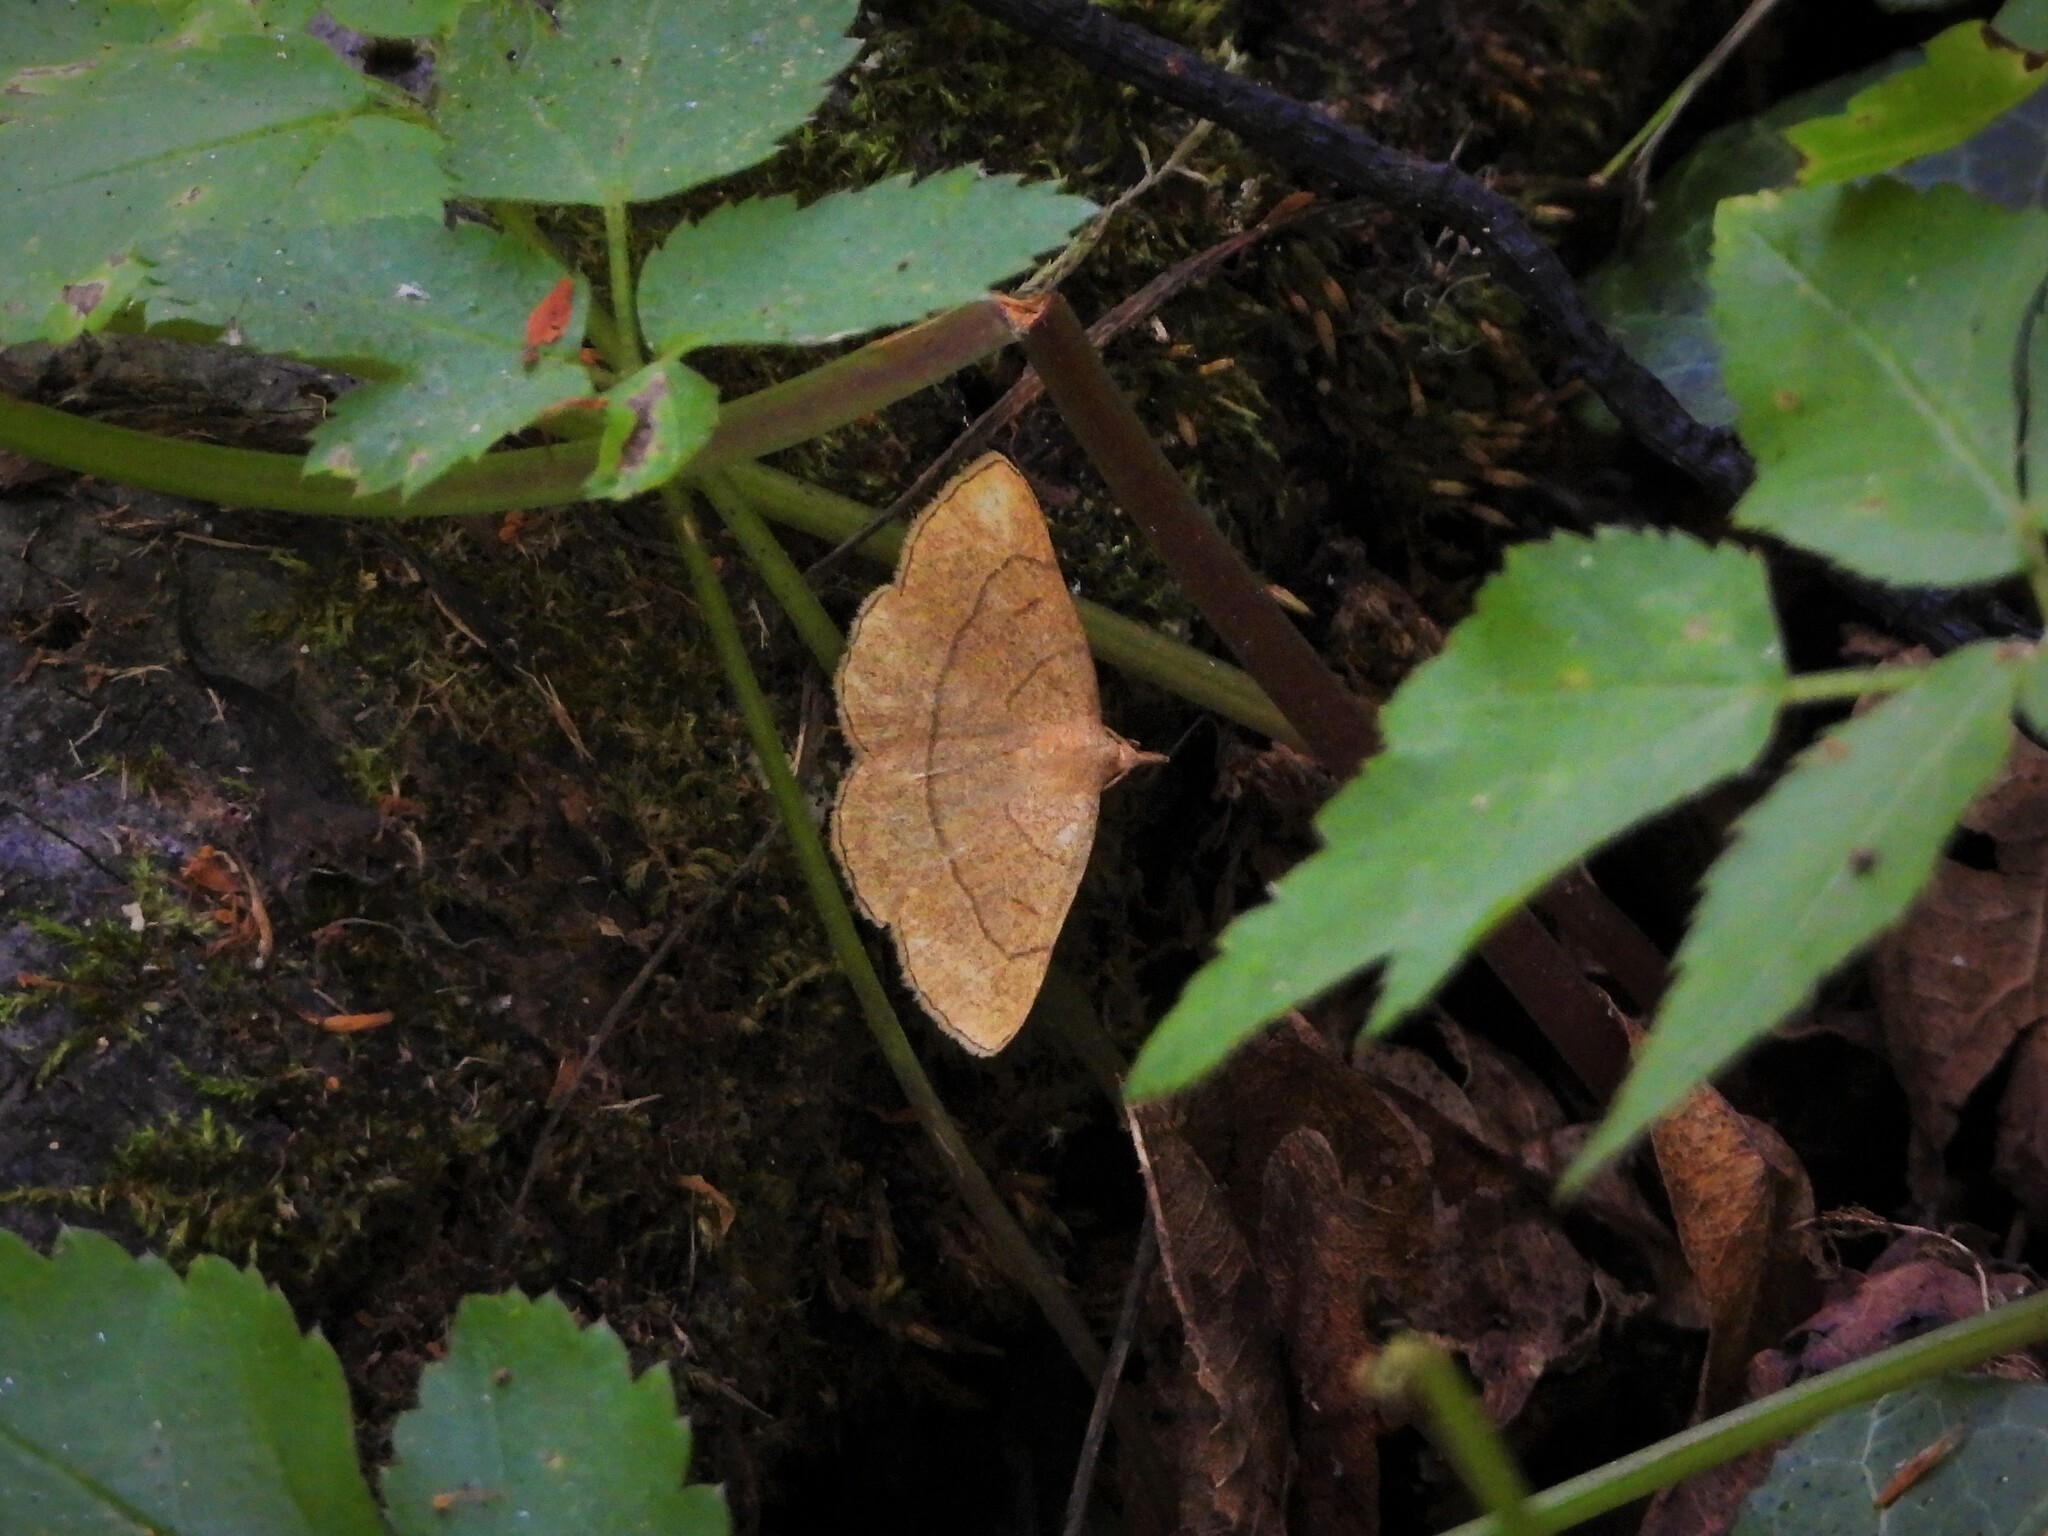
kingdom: Animalia
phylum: Arthropoda
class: Insecta
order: Lepidoptera
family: Erebidae
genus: Paracolax
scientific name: Paracolax tristalis
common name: Clay fan-foot
